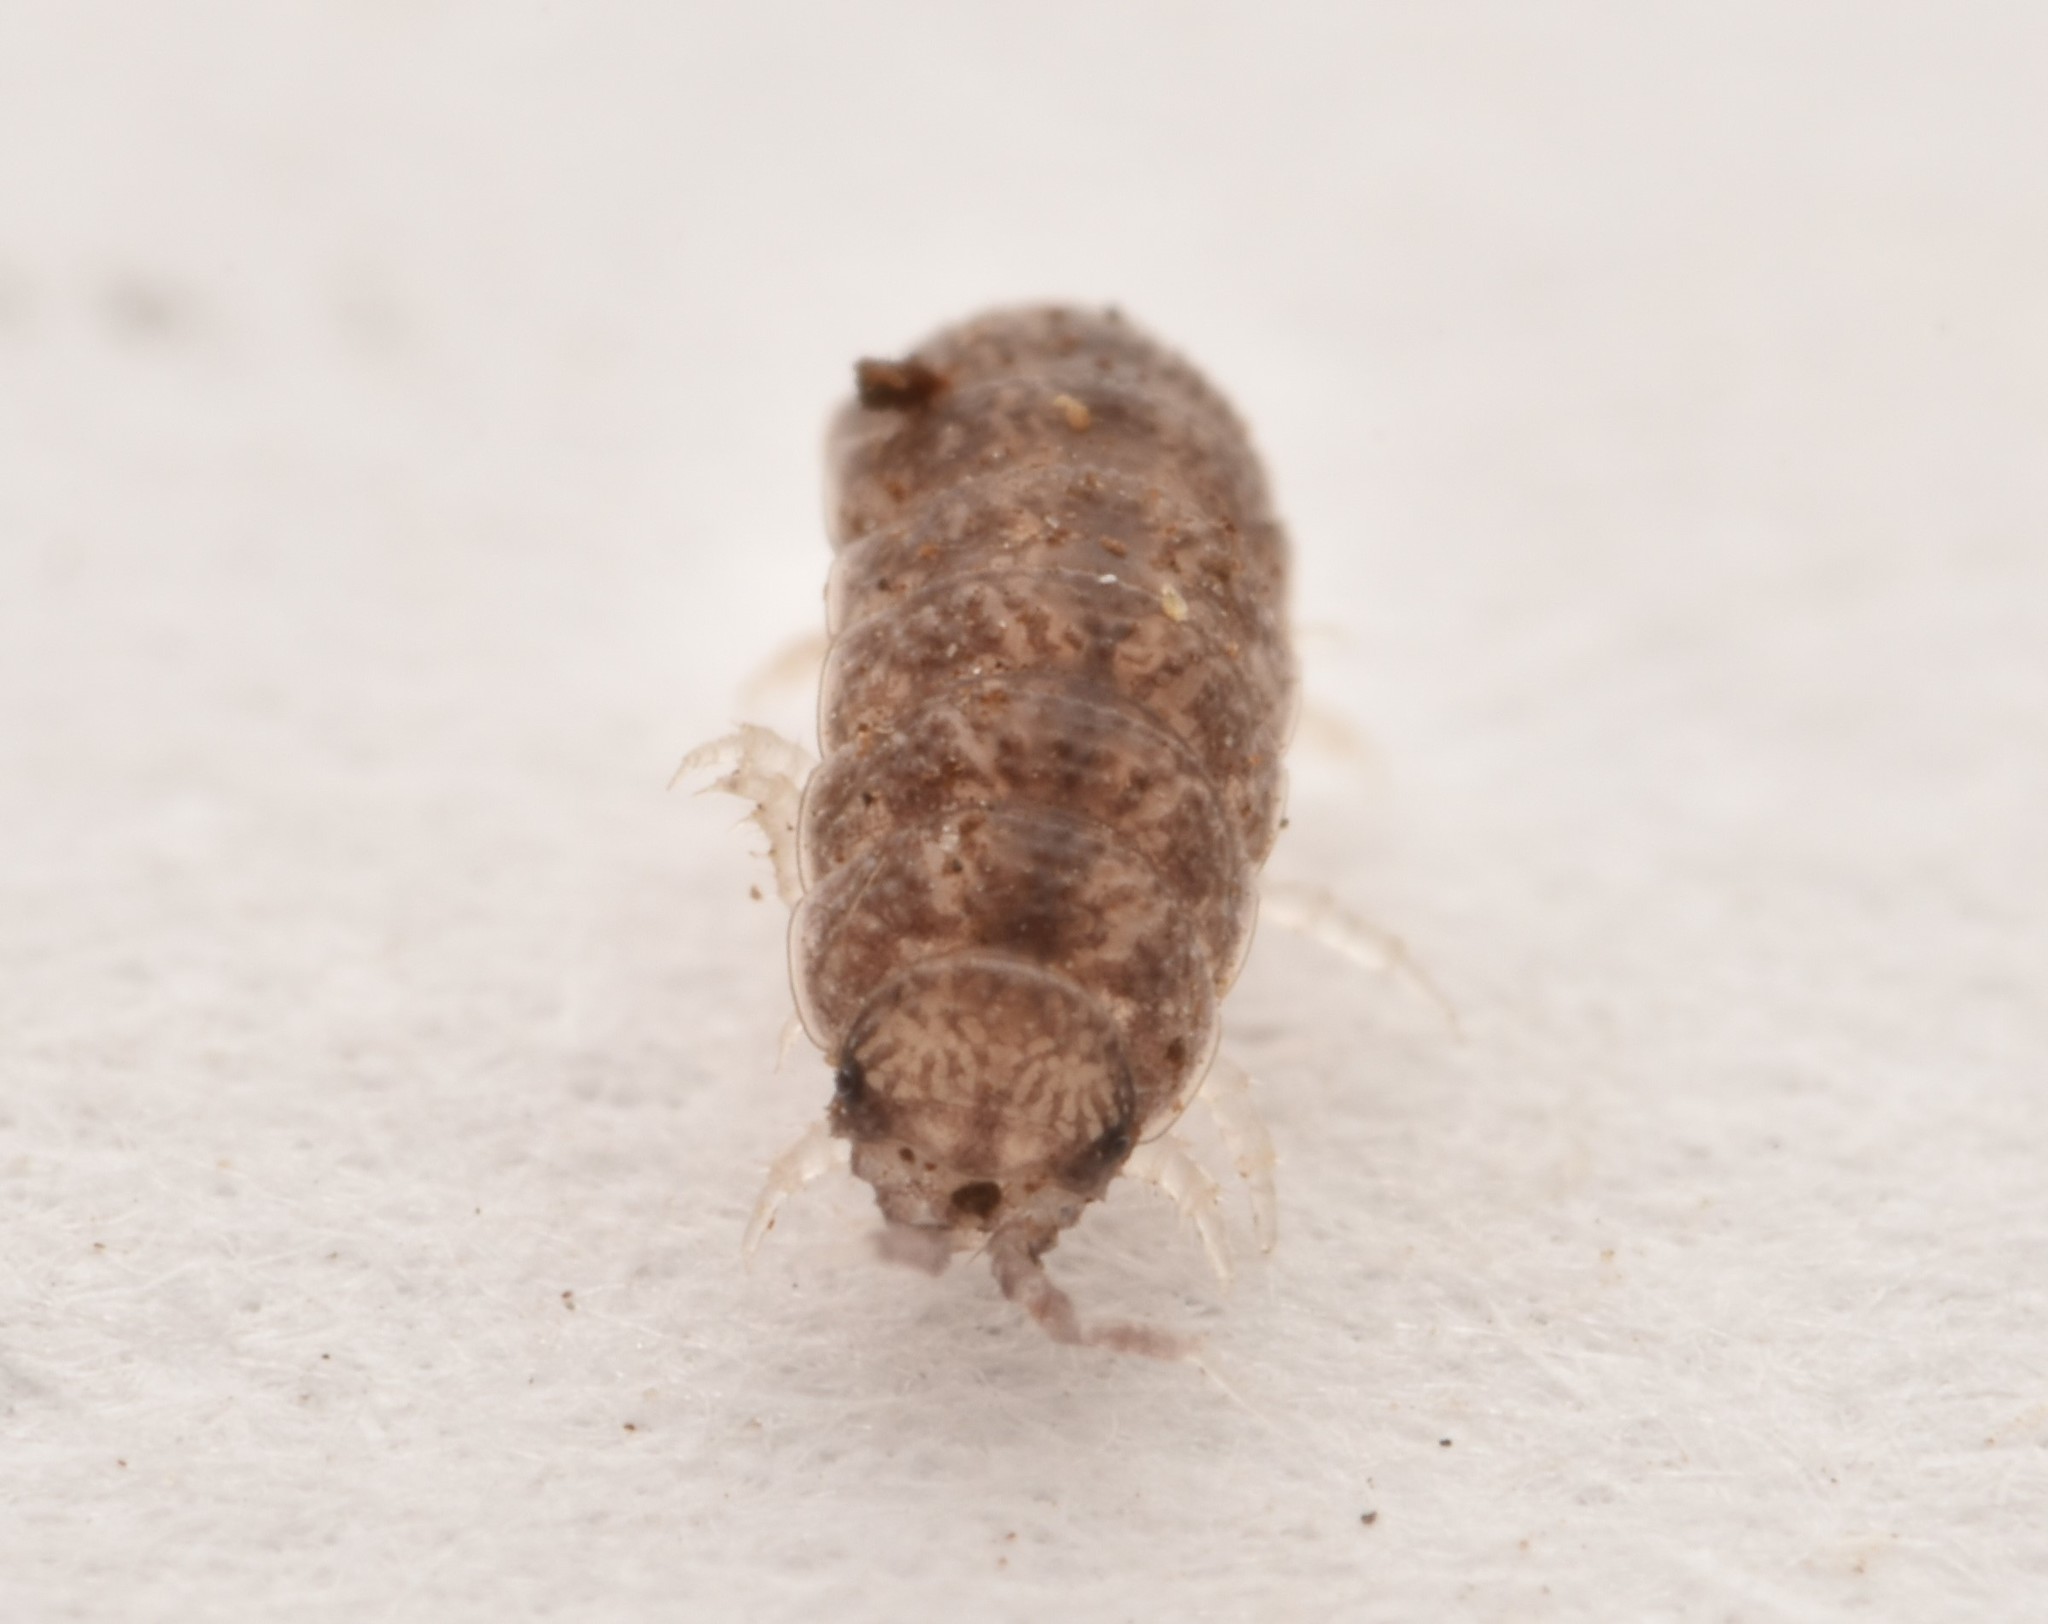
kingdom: Animalia
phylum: Arthropoda
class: Malacostraca
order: Isopoda
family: Trichoniscidae
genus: Miktoniscus
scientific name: Miktoniscus medcofi
